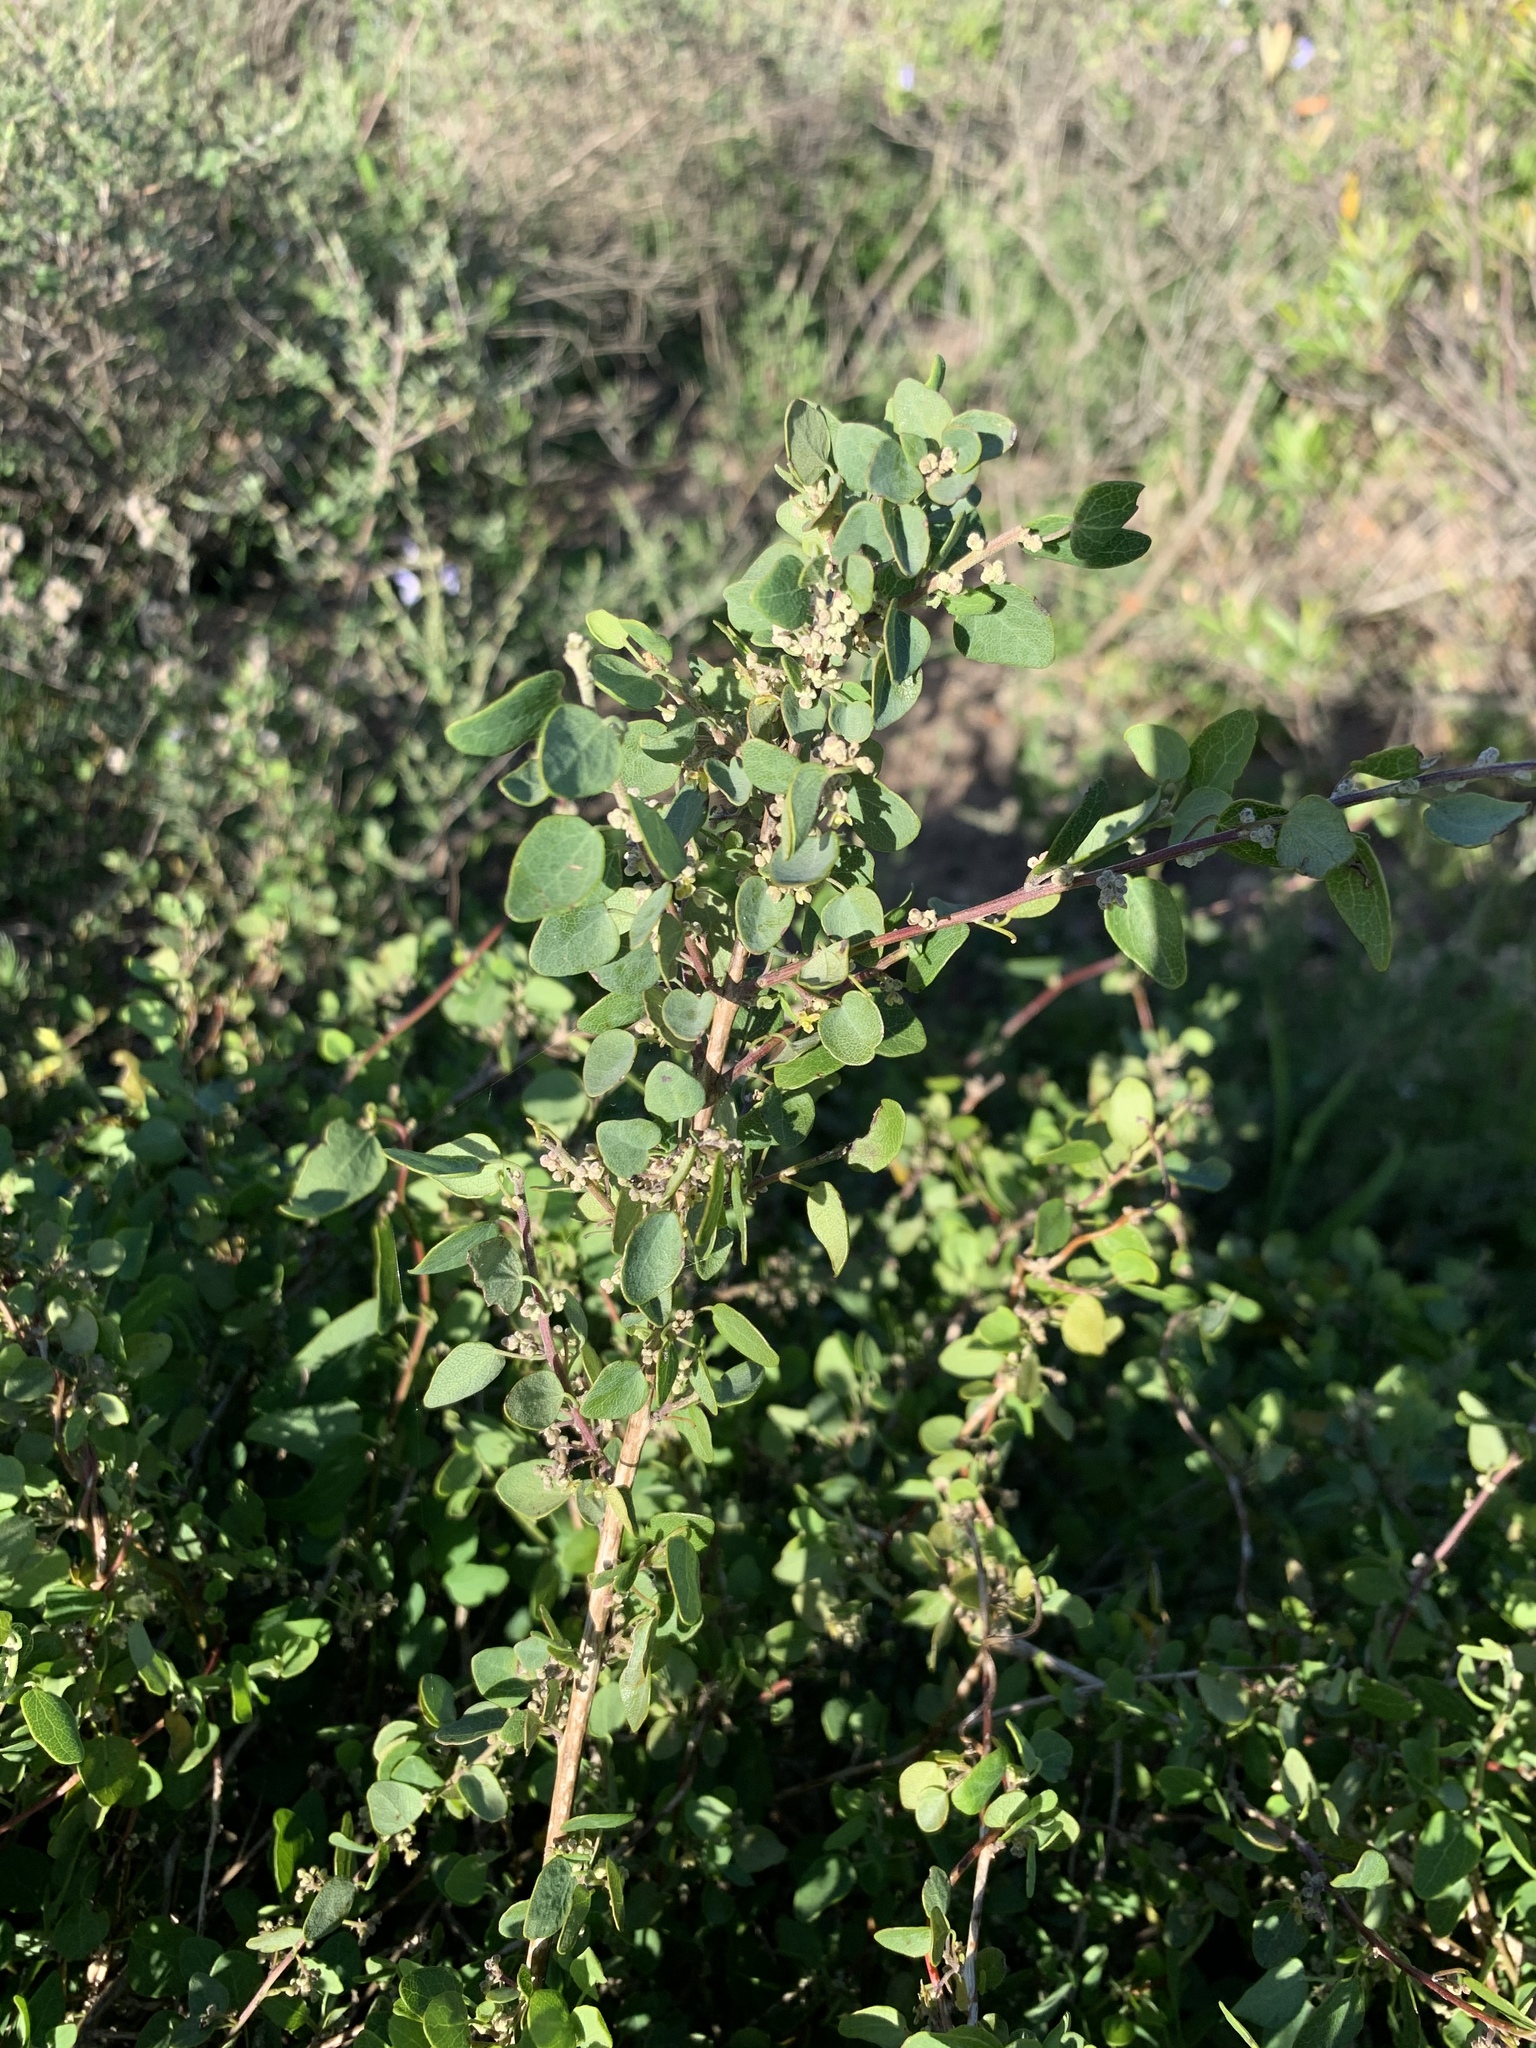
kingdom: Plantae
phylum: Tracheophyta
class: Magnoliopsida
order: Ranunculales
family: Menispermaceae
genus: Cissampelos
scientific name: Cissampelos capensis
